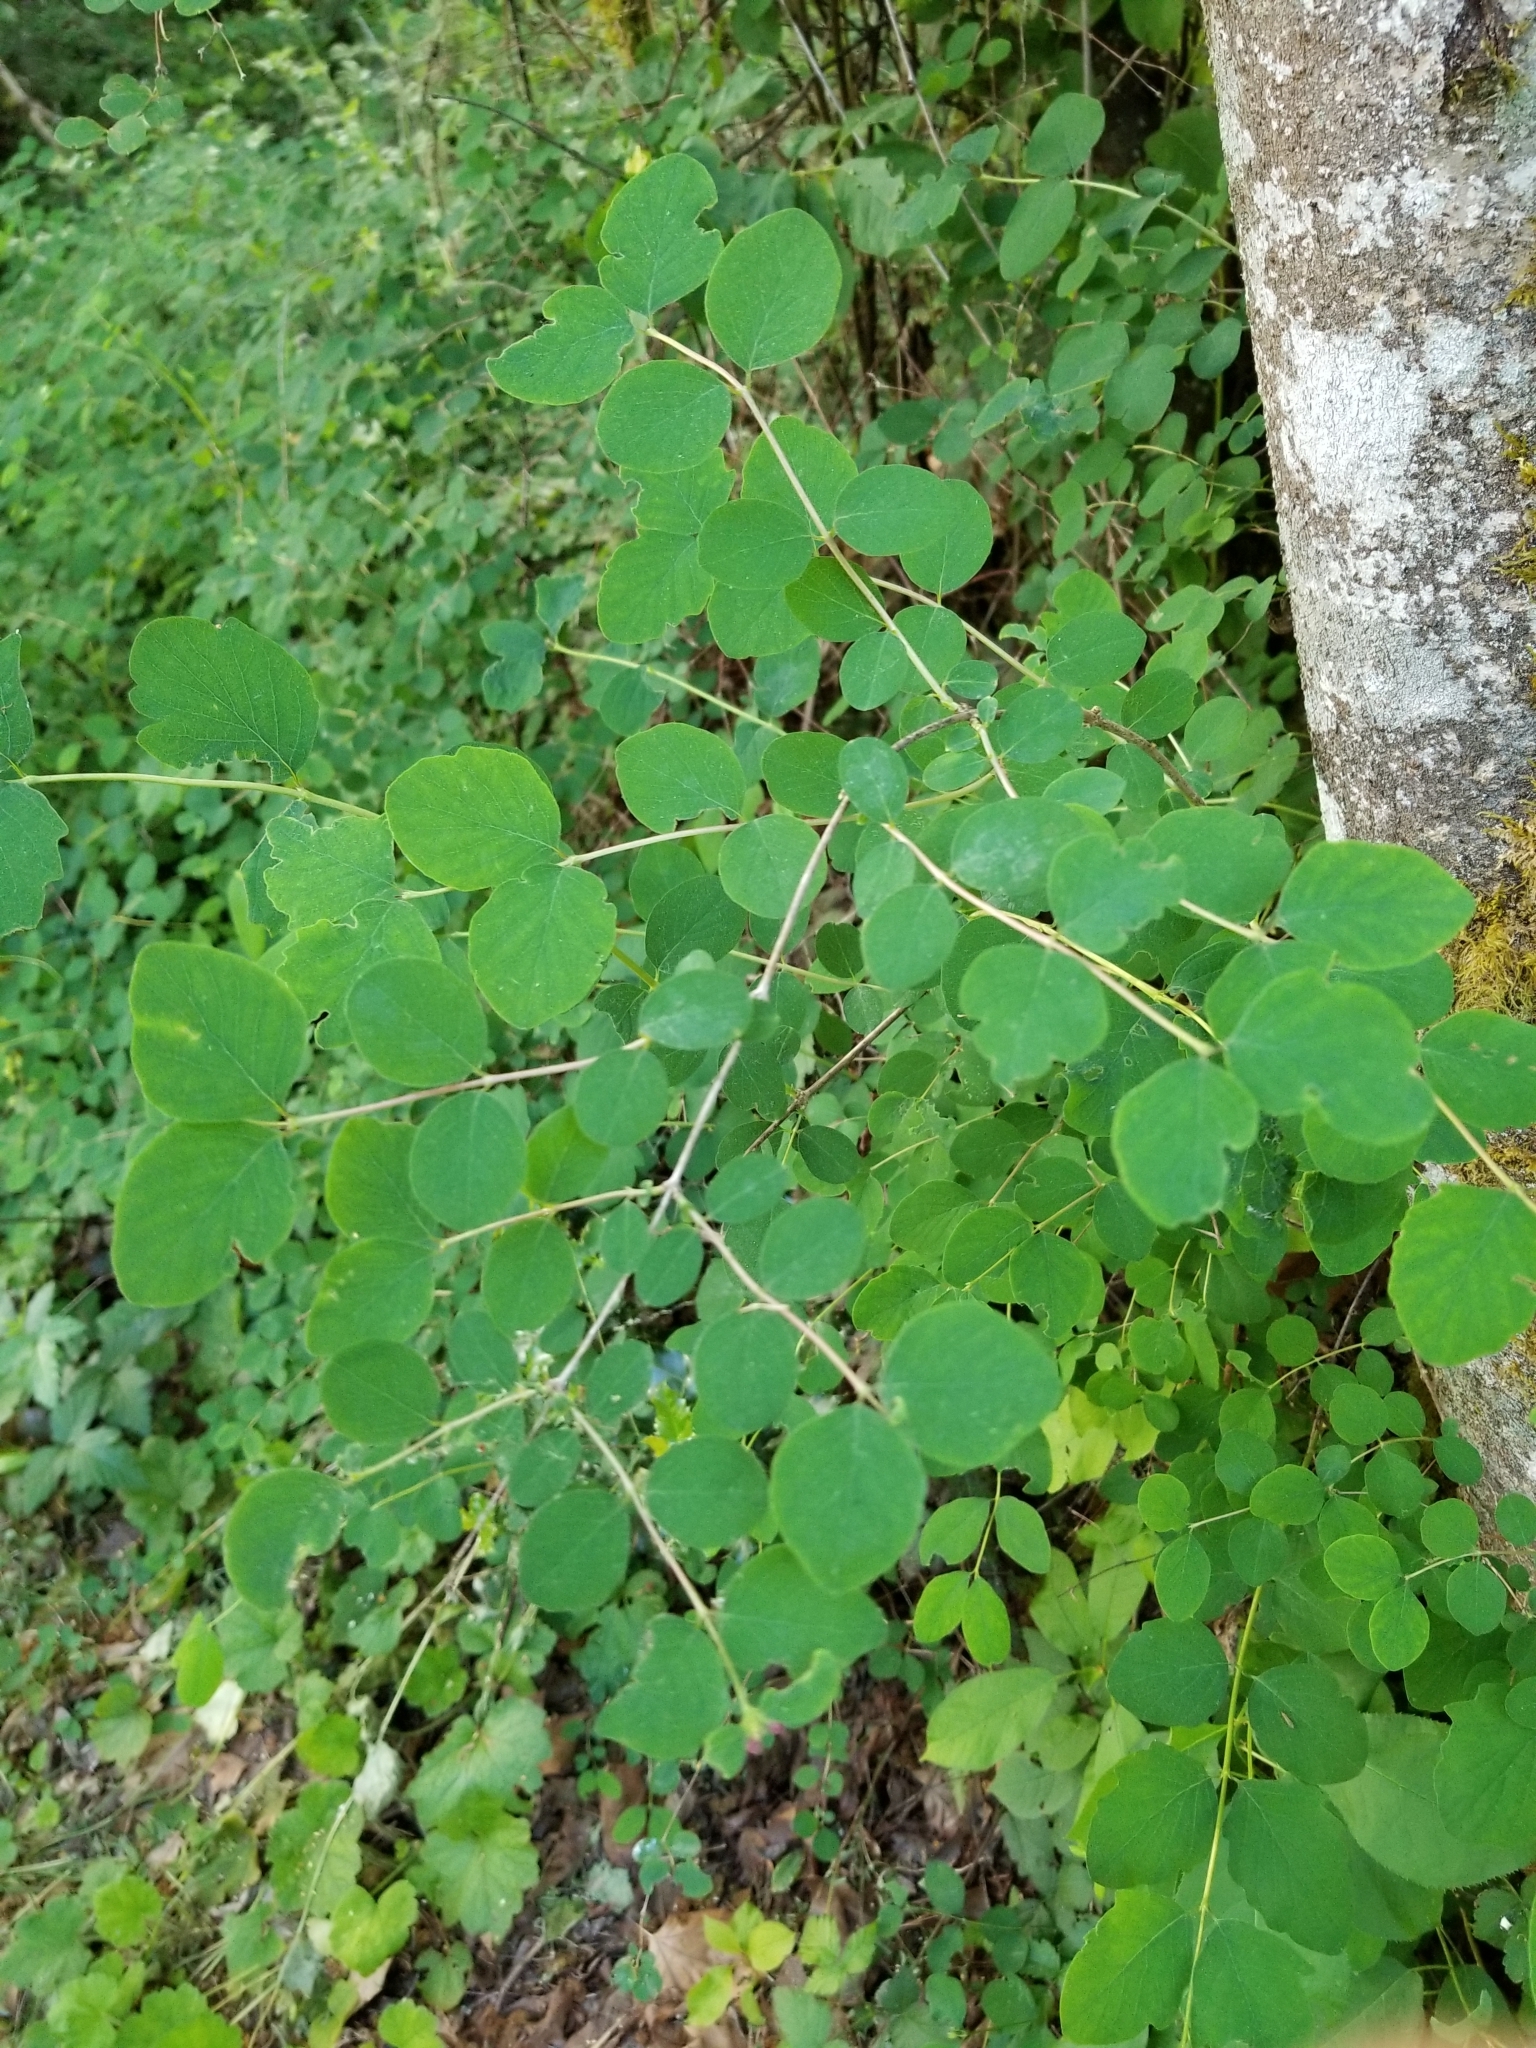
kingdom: Plantae
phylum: Tracheophyta
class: Magnoliopsida
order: Dipsacales
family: Caprifoliaceae
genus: Symphoricarpos
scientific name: Symphoricarpos albus
